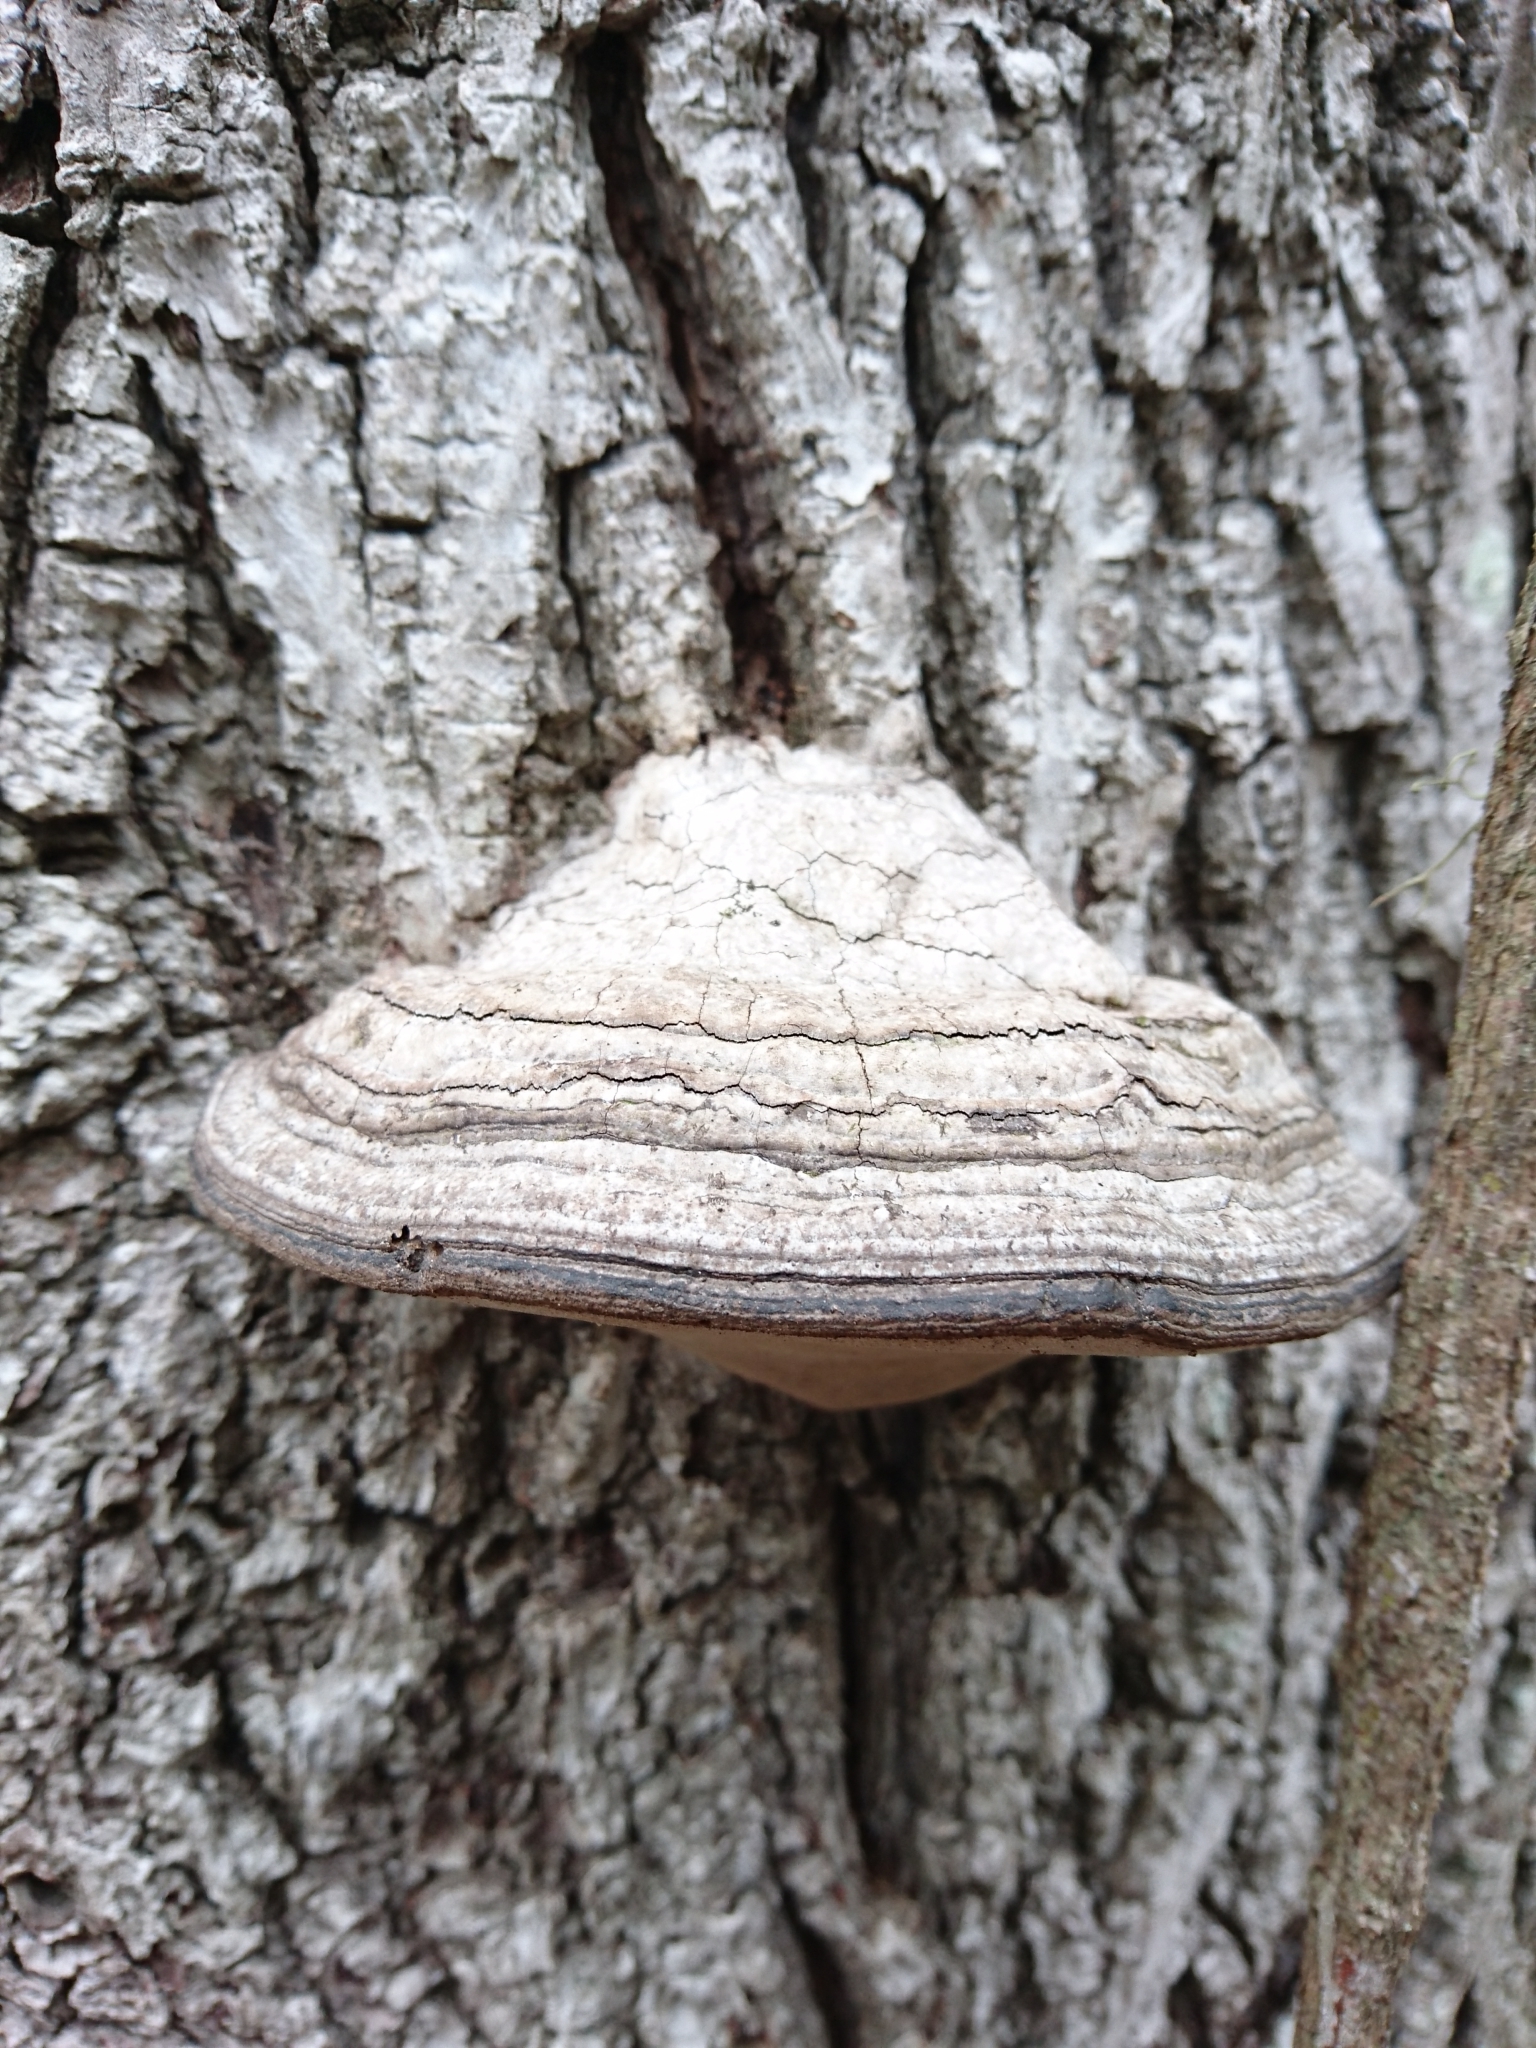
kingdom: Fungi
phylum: Basidiomycota
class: Agaricomycetes
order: Polyporales
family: Polyporaceae
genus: Fomes
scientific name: Fomes fasciatus
